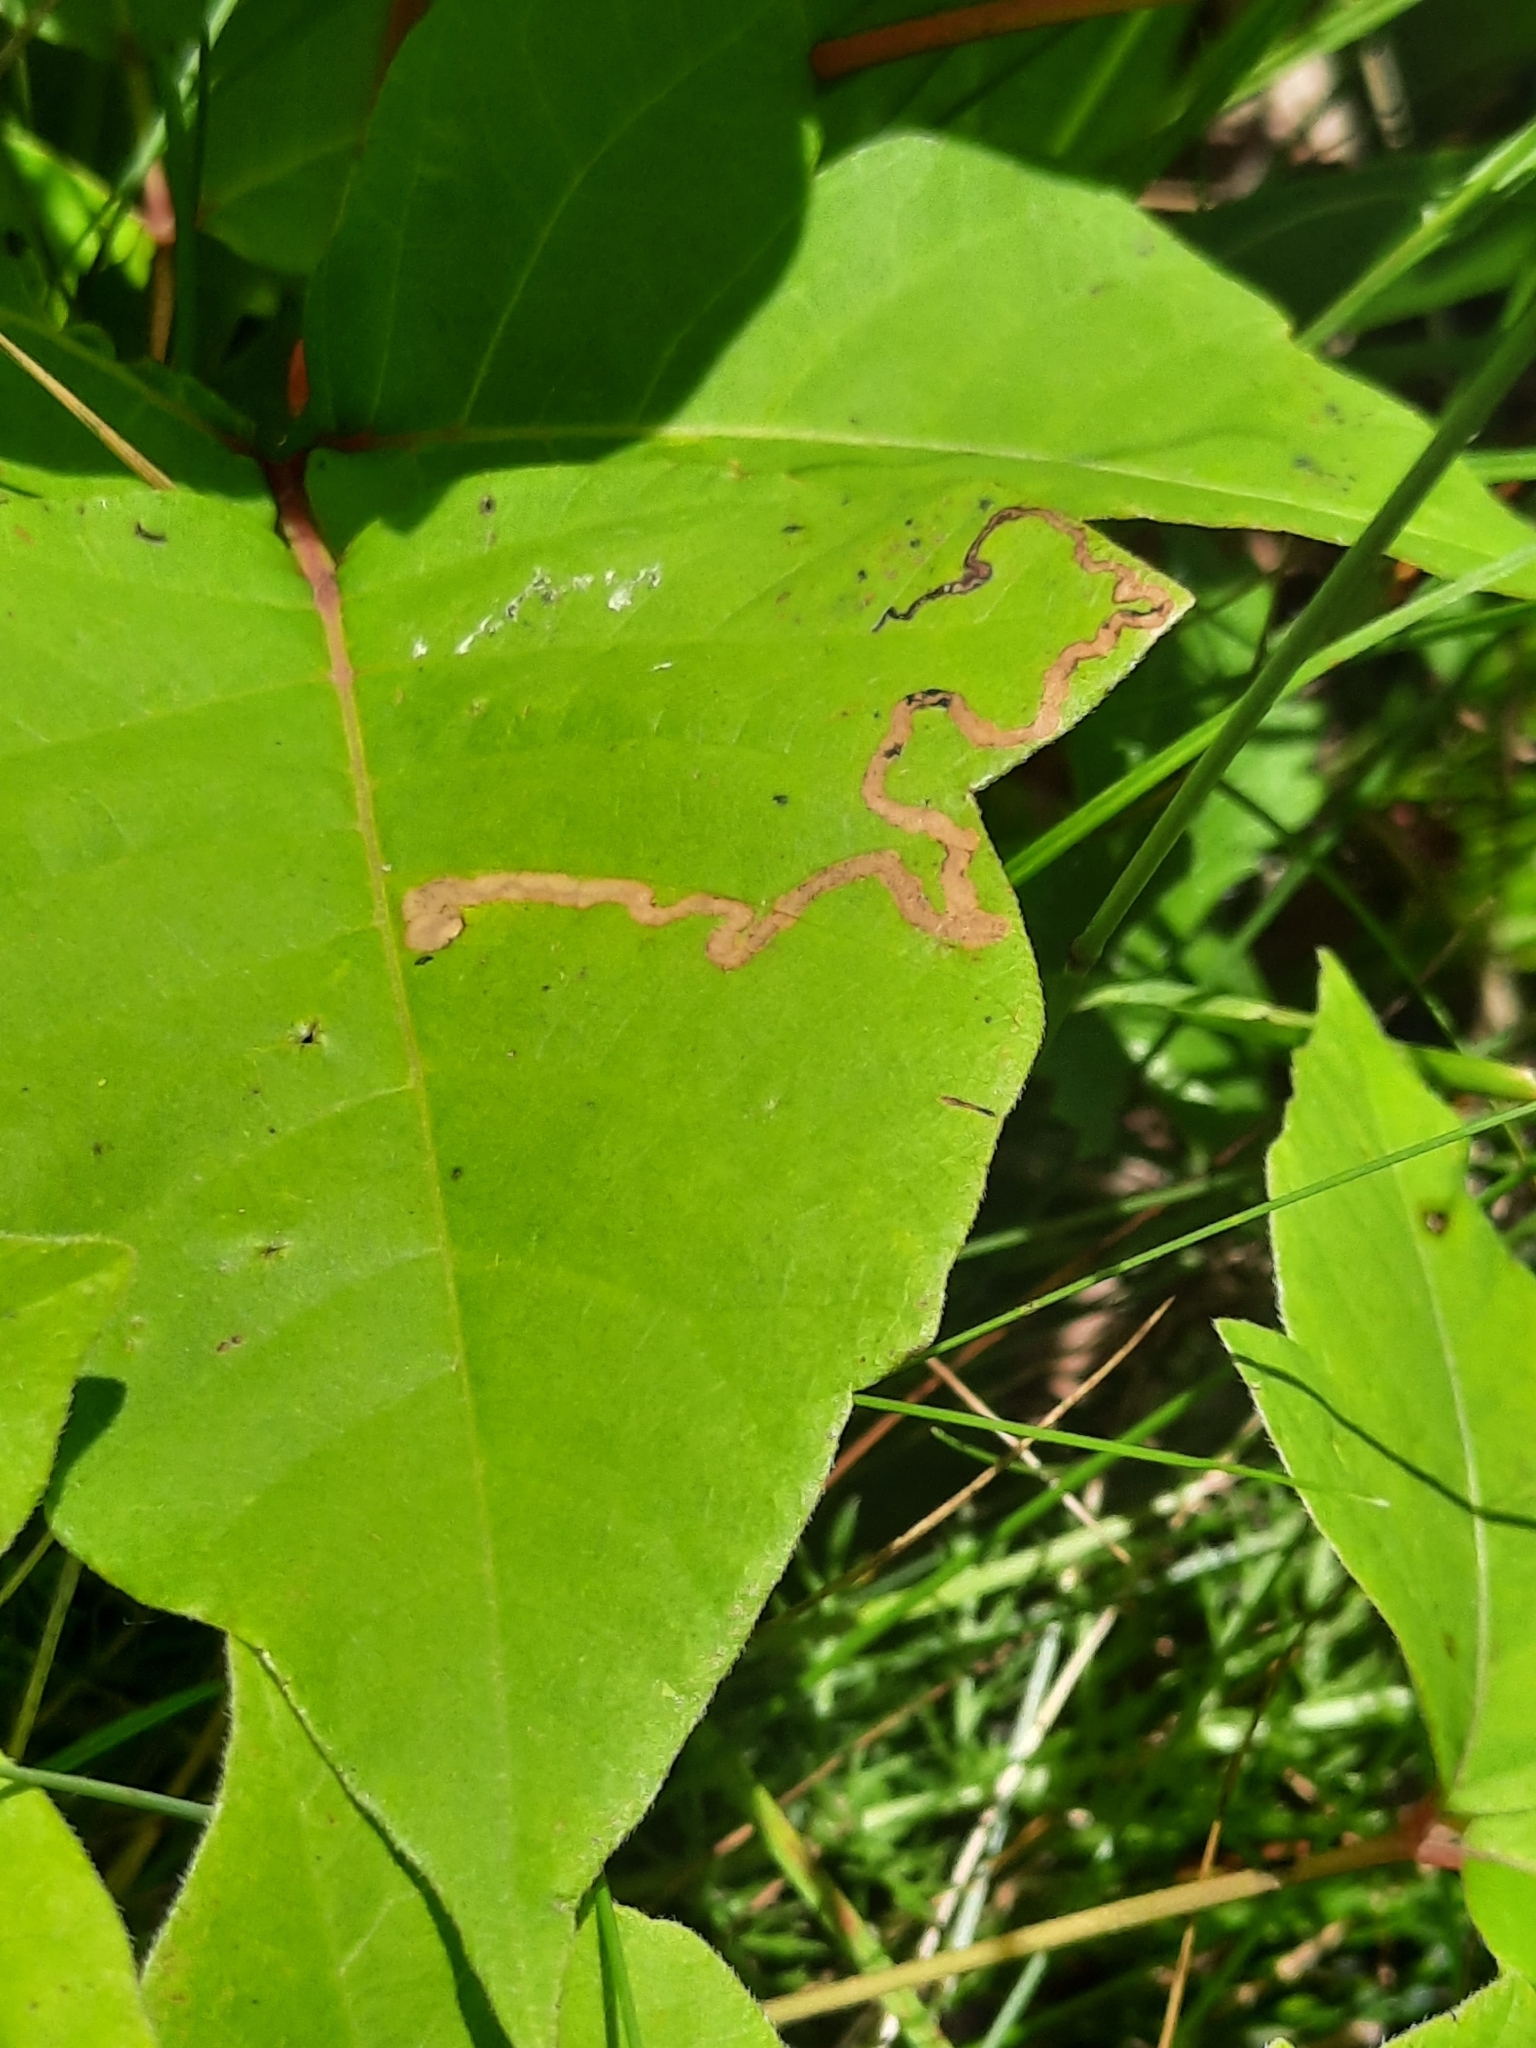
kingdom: Animalia
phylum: Arthropoda
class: Insecta
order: Lepidoptera
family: Nepticulidae
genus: Stigmella
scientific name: Stigmella rhoifoliella
